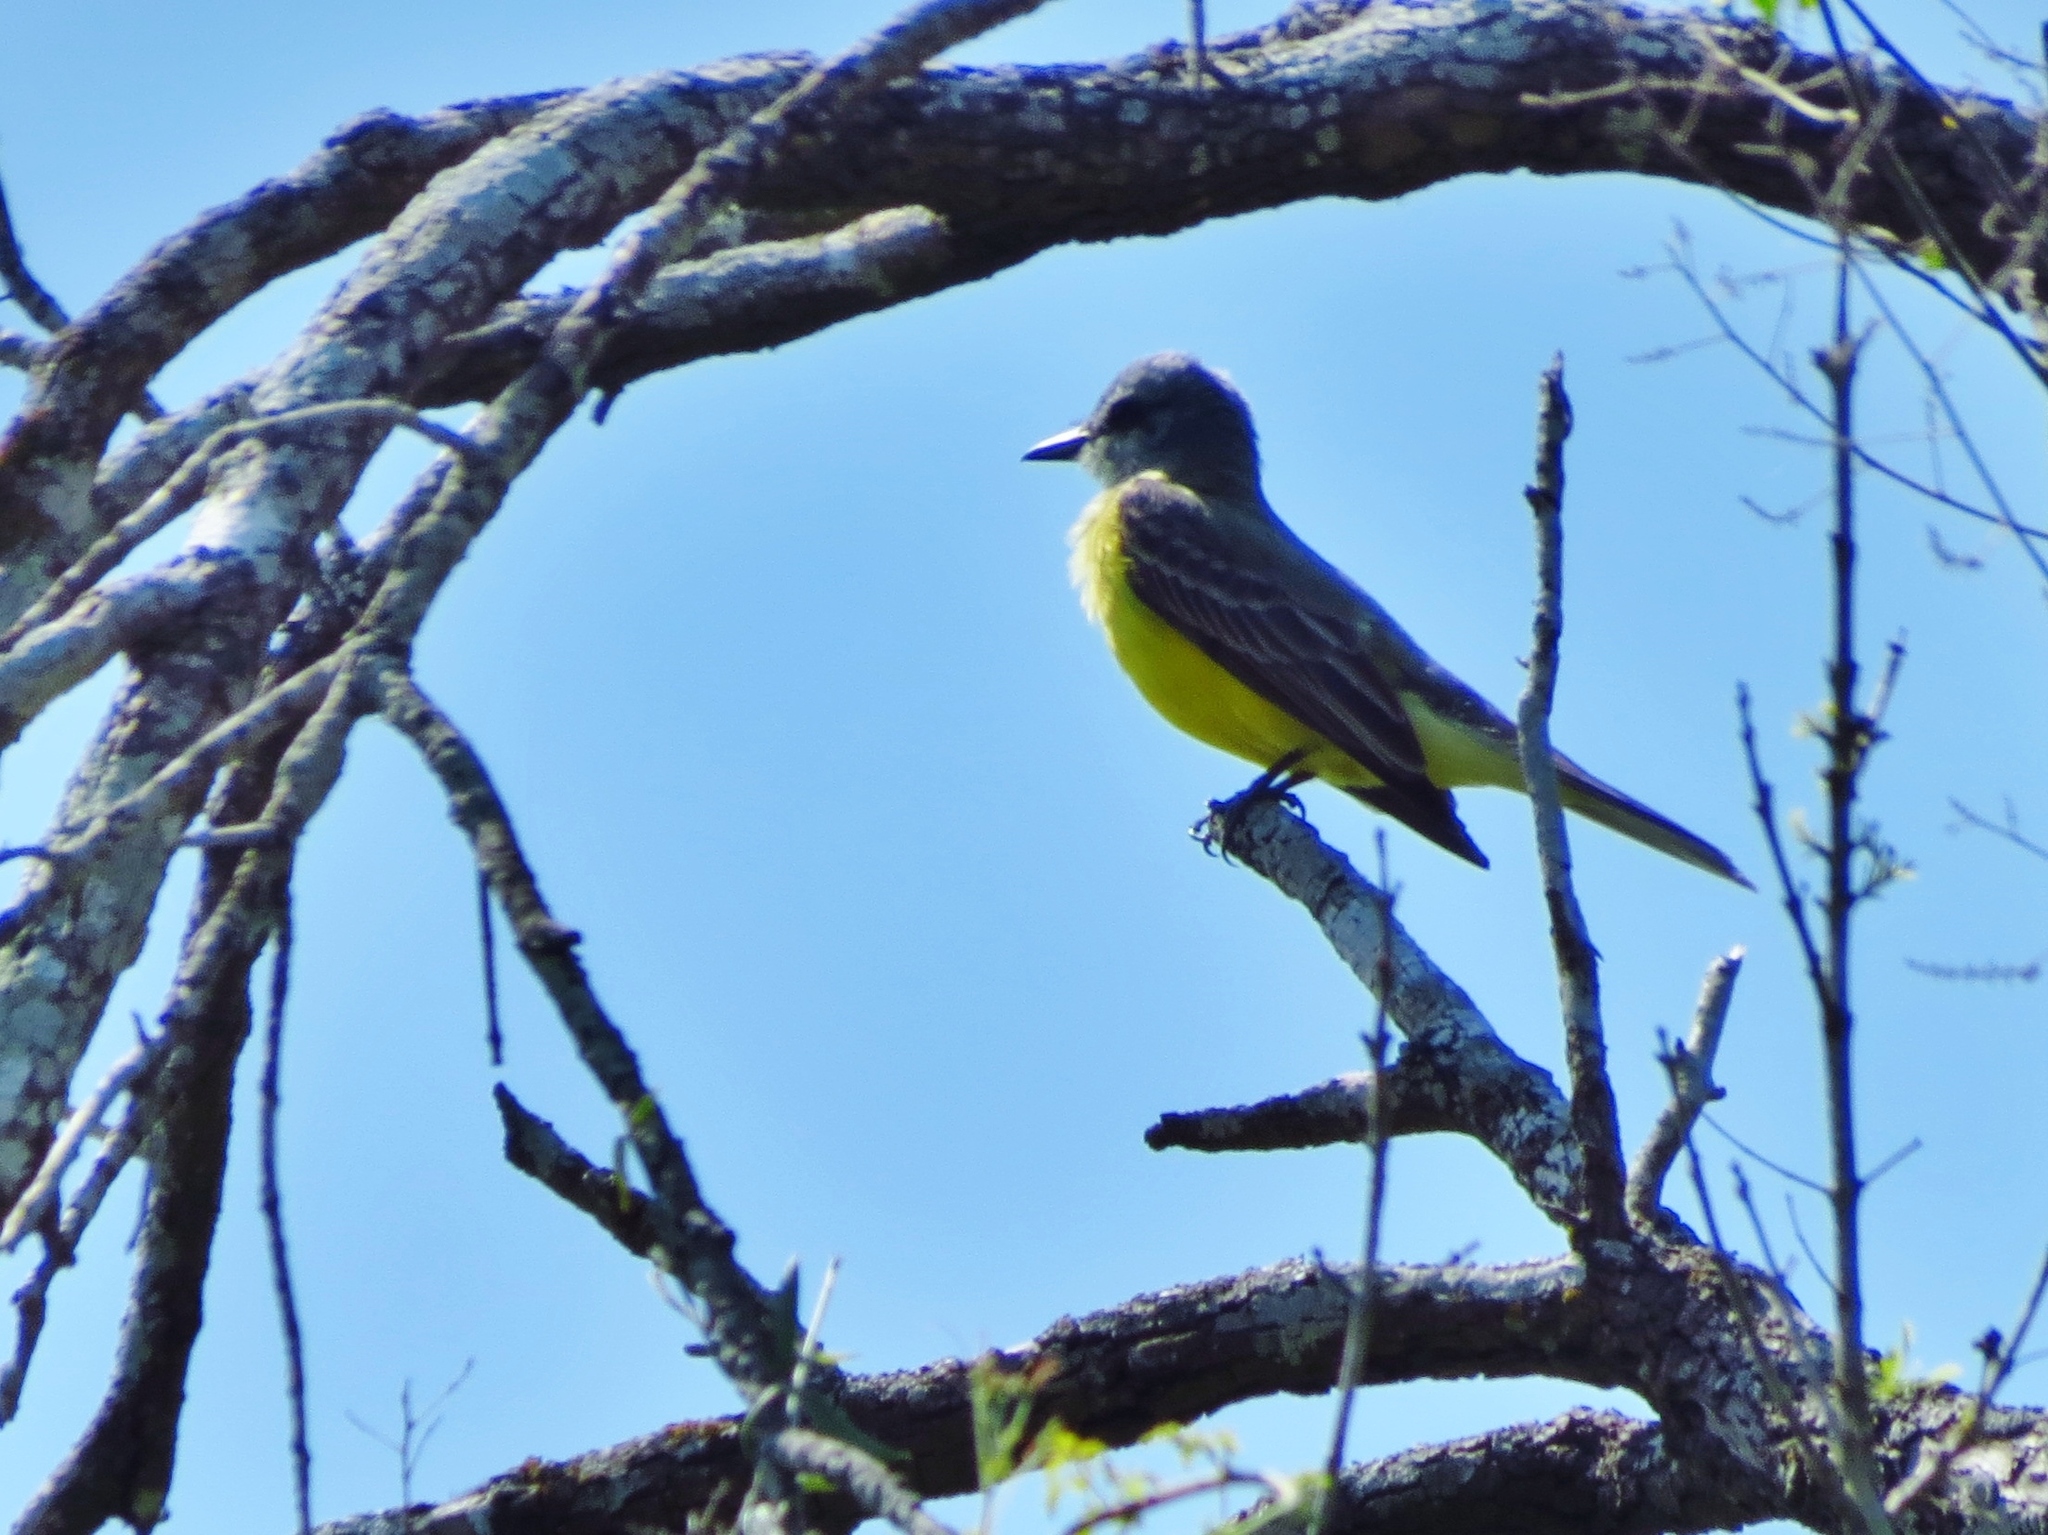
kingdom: Animalia
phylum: Chordata
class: Aves
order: Passeriformes
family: Tyrannidae
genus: Tyrannus
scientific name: Tyrannus couchii
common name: Couch's kingbird
